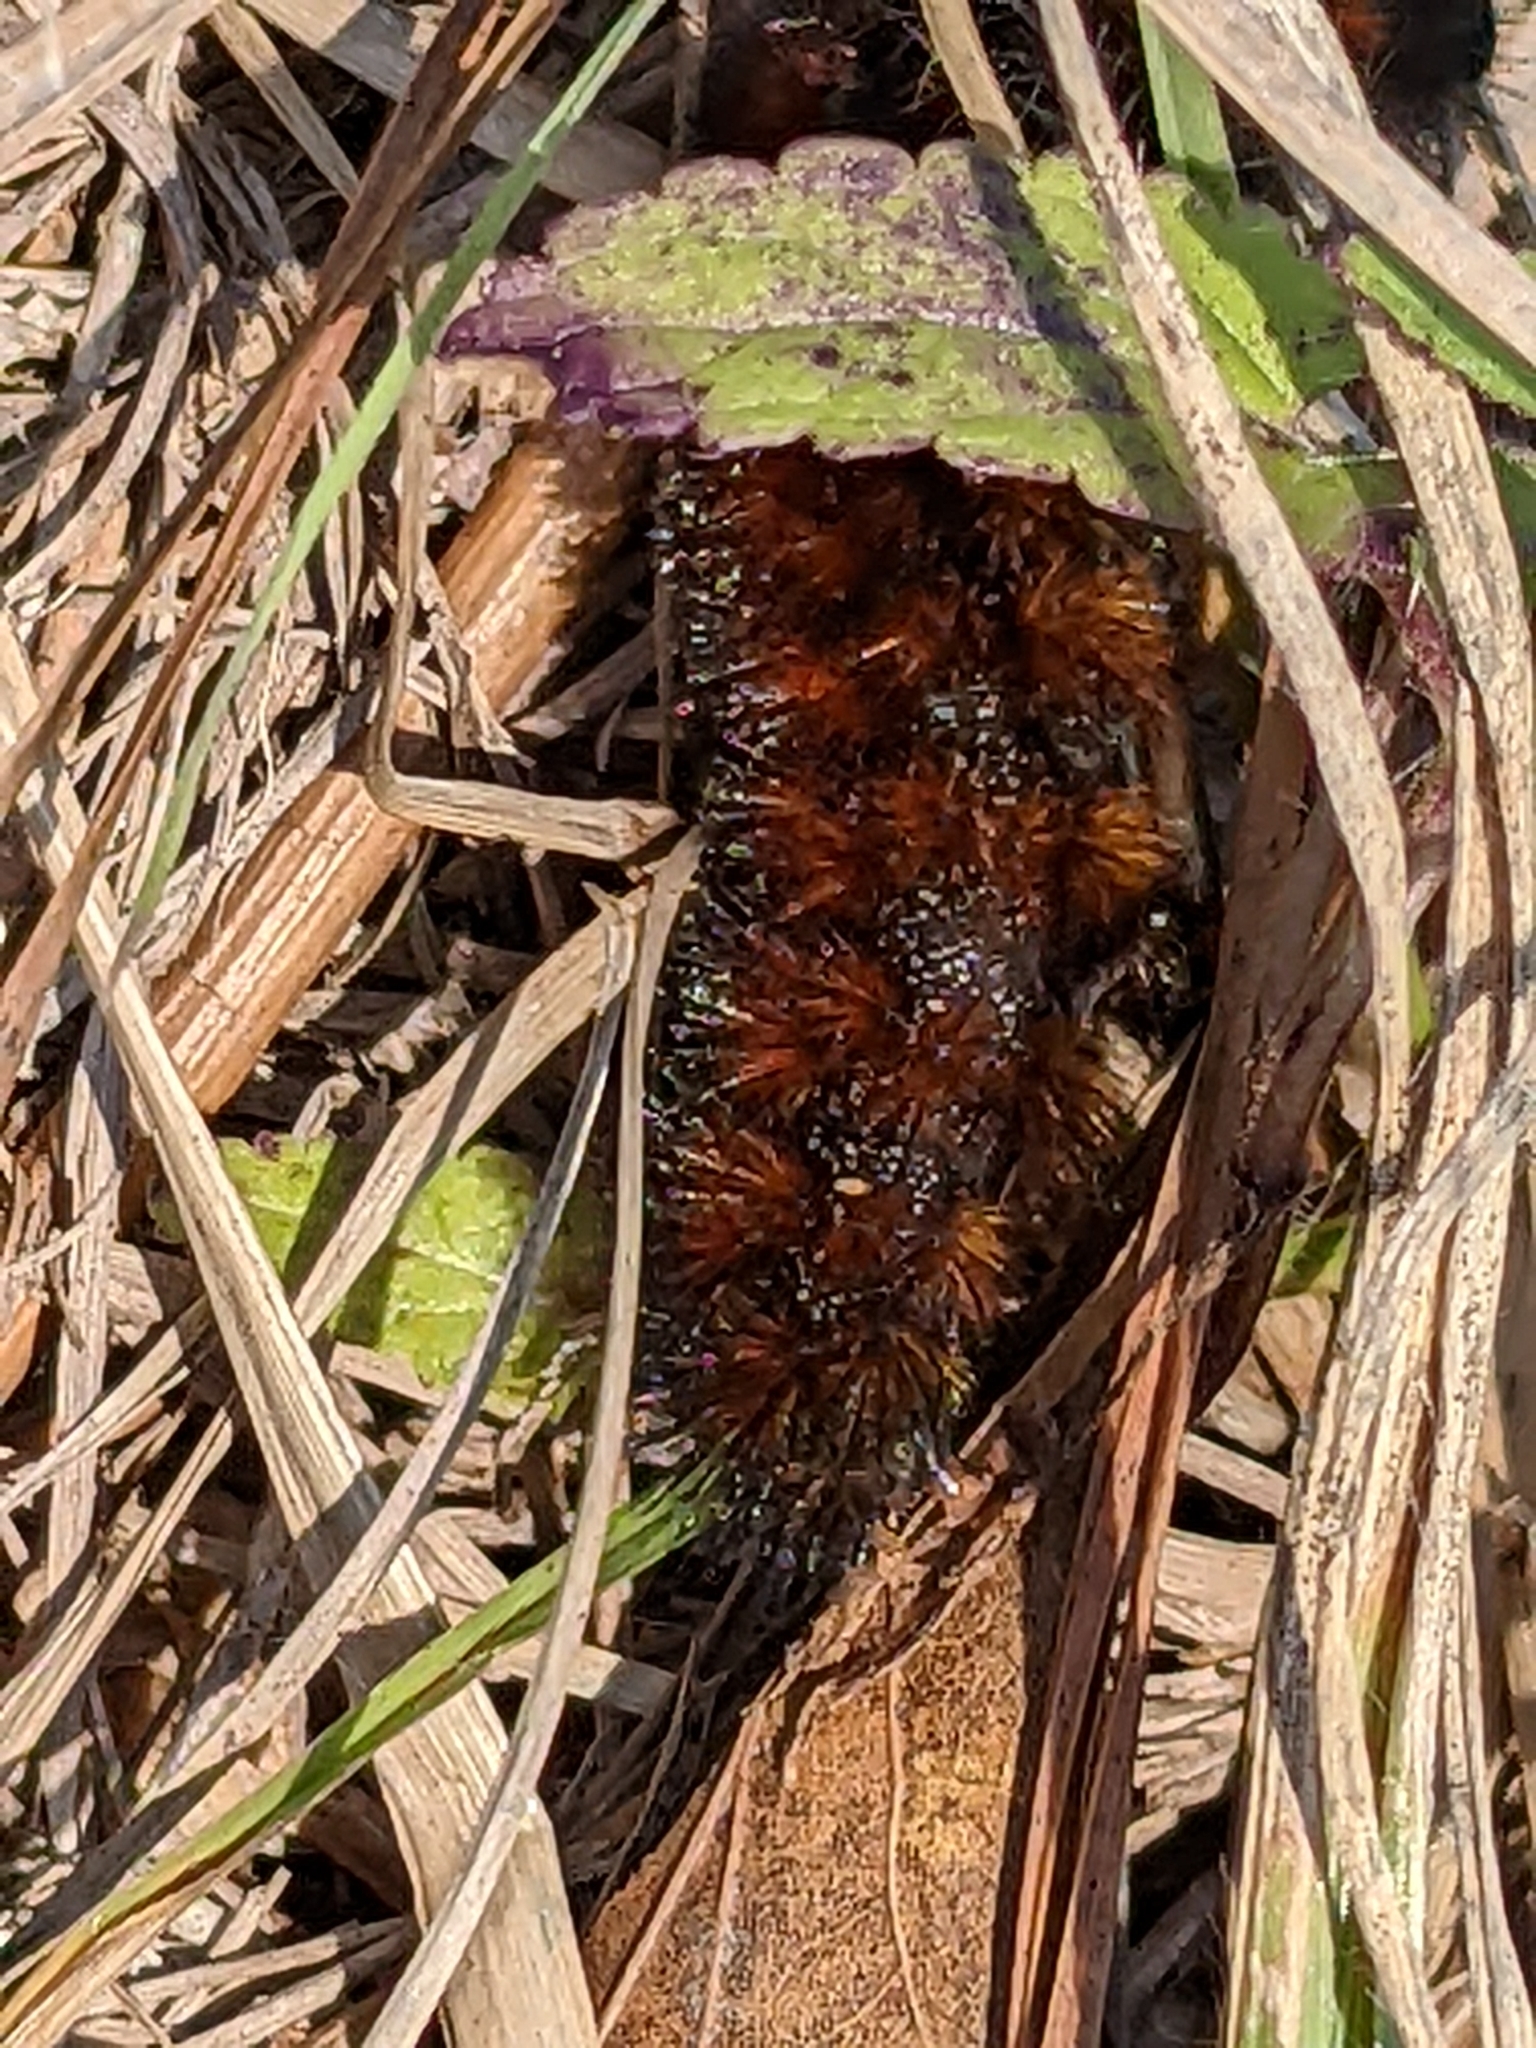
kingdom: Animalia
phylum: Arthropoda
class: Insecta
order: Lepidoptera
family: Erebidae
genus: Pyrrharctia
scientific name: Pyrrharctia isabella
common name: Isabella tiger moth
